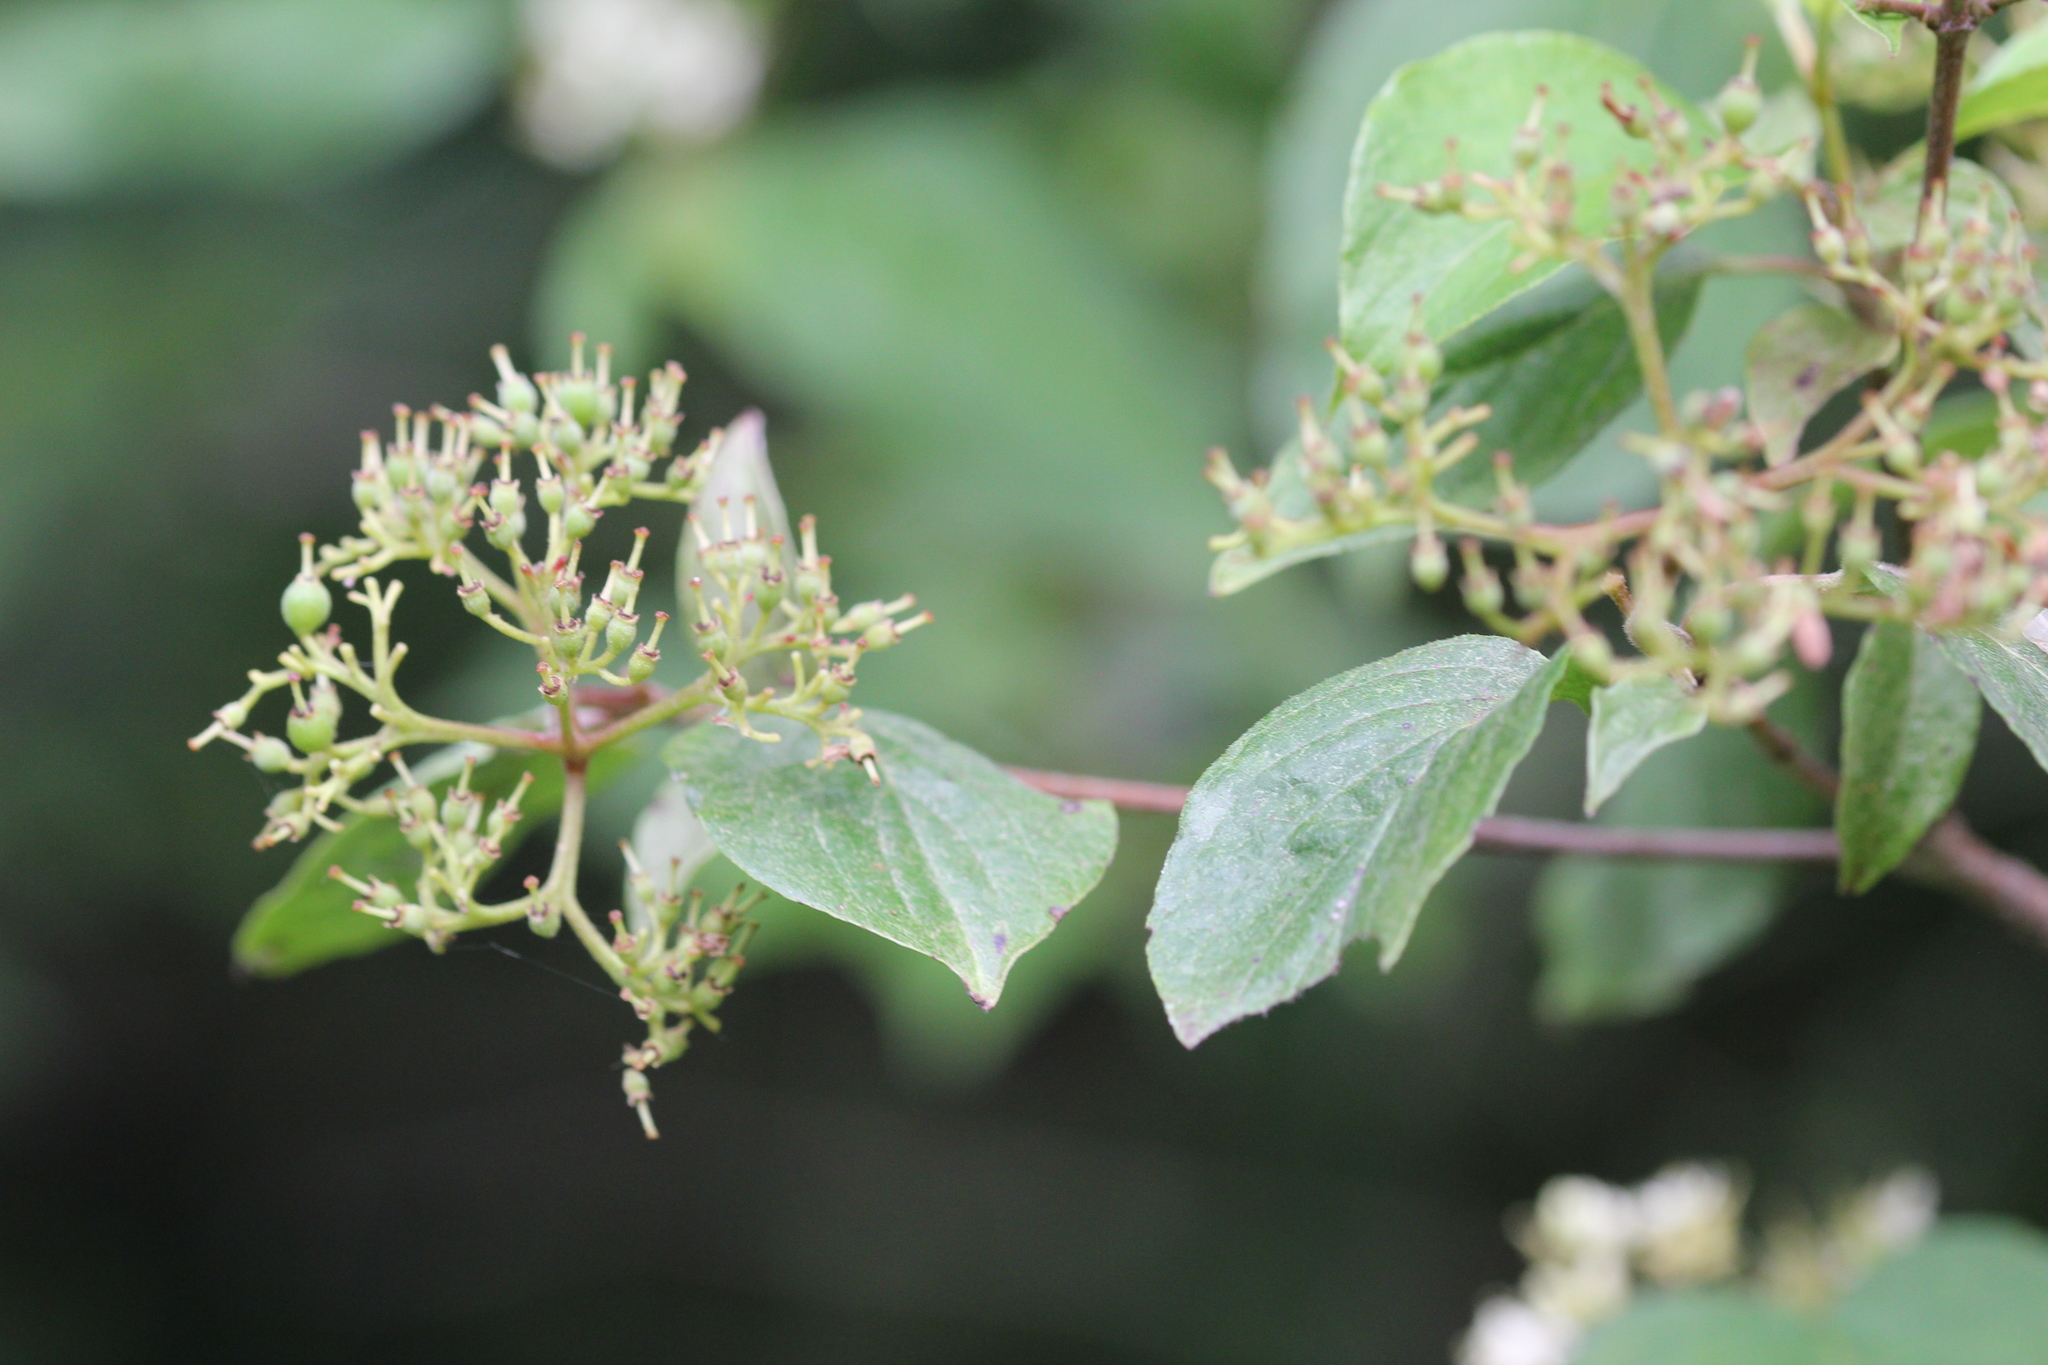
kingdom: Plantae
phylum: Tracheophyta
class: Magnoliopsida
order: Cornales
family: Cornaceae
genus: Cornus
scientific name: Cornus drummondii
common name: Rough-leaf dogwood
